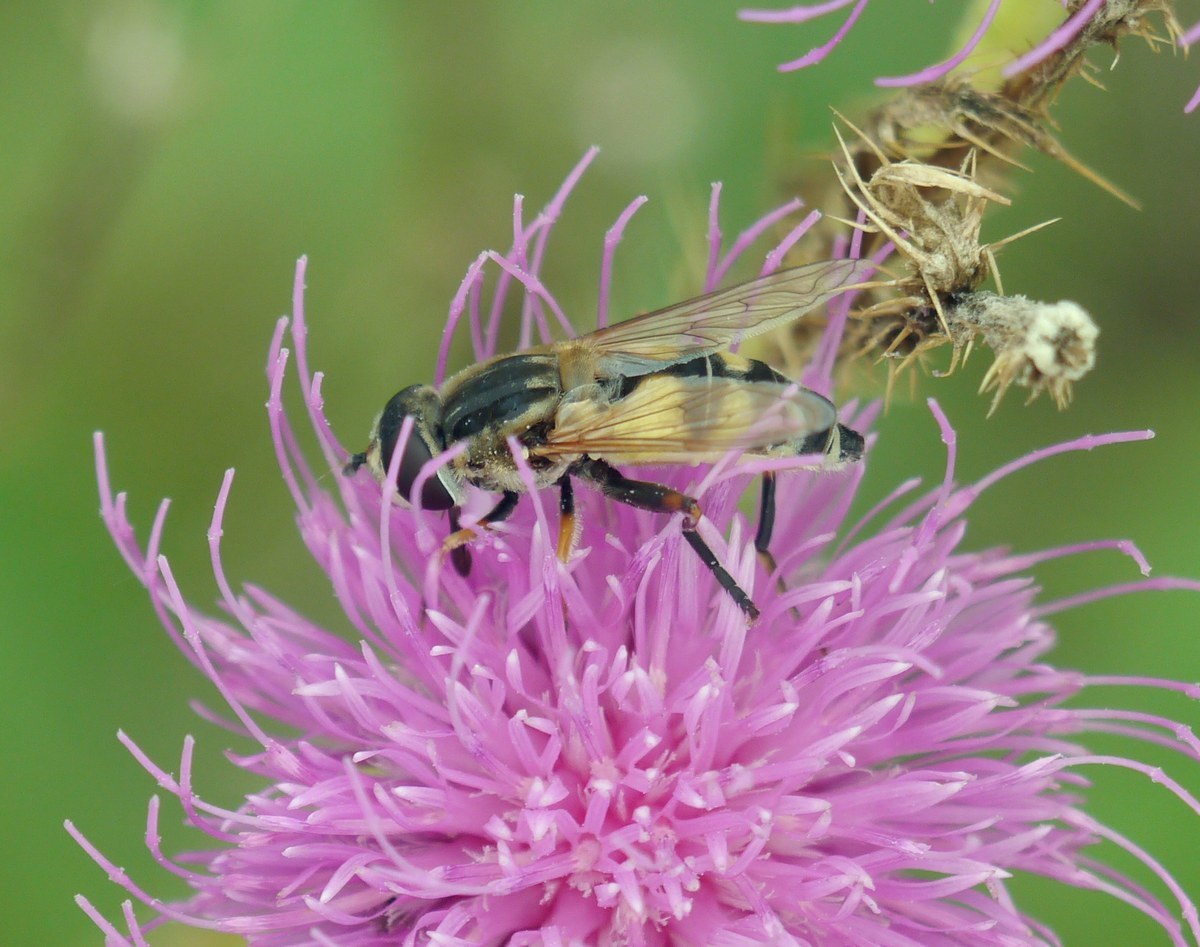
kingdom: Animalia
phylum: Arthropoda
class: Insecta
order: Diptera
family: Syrphidae
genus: Helophilus
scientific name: Helophilus trivittatus
